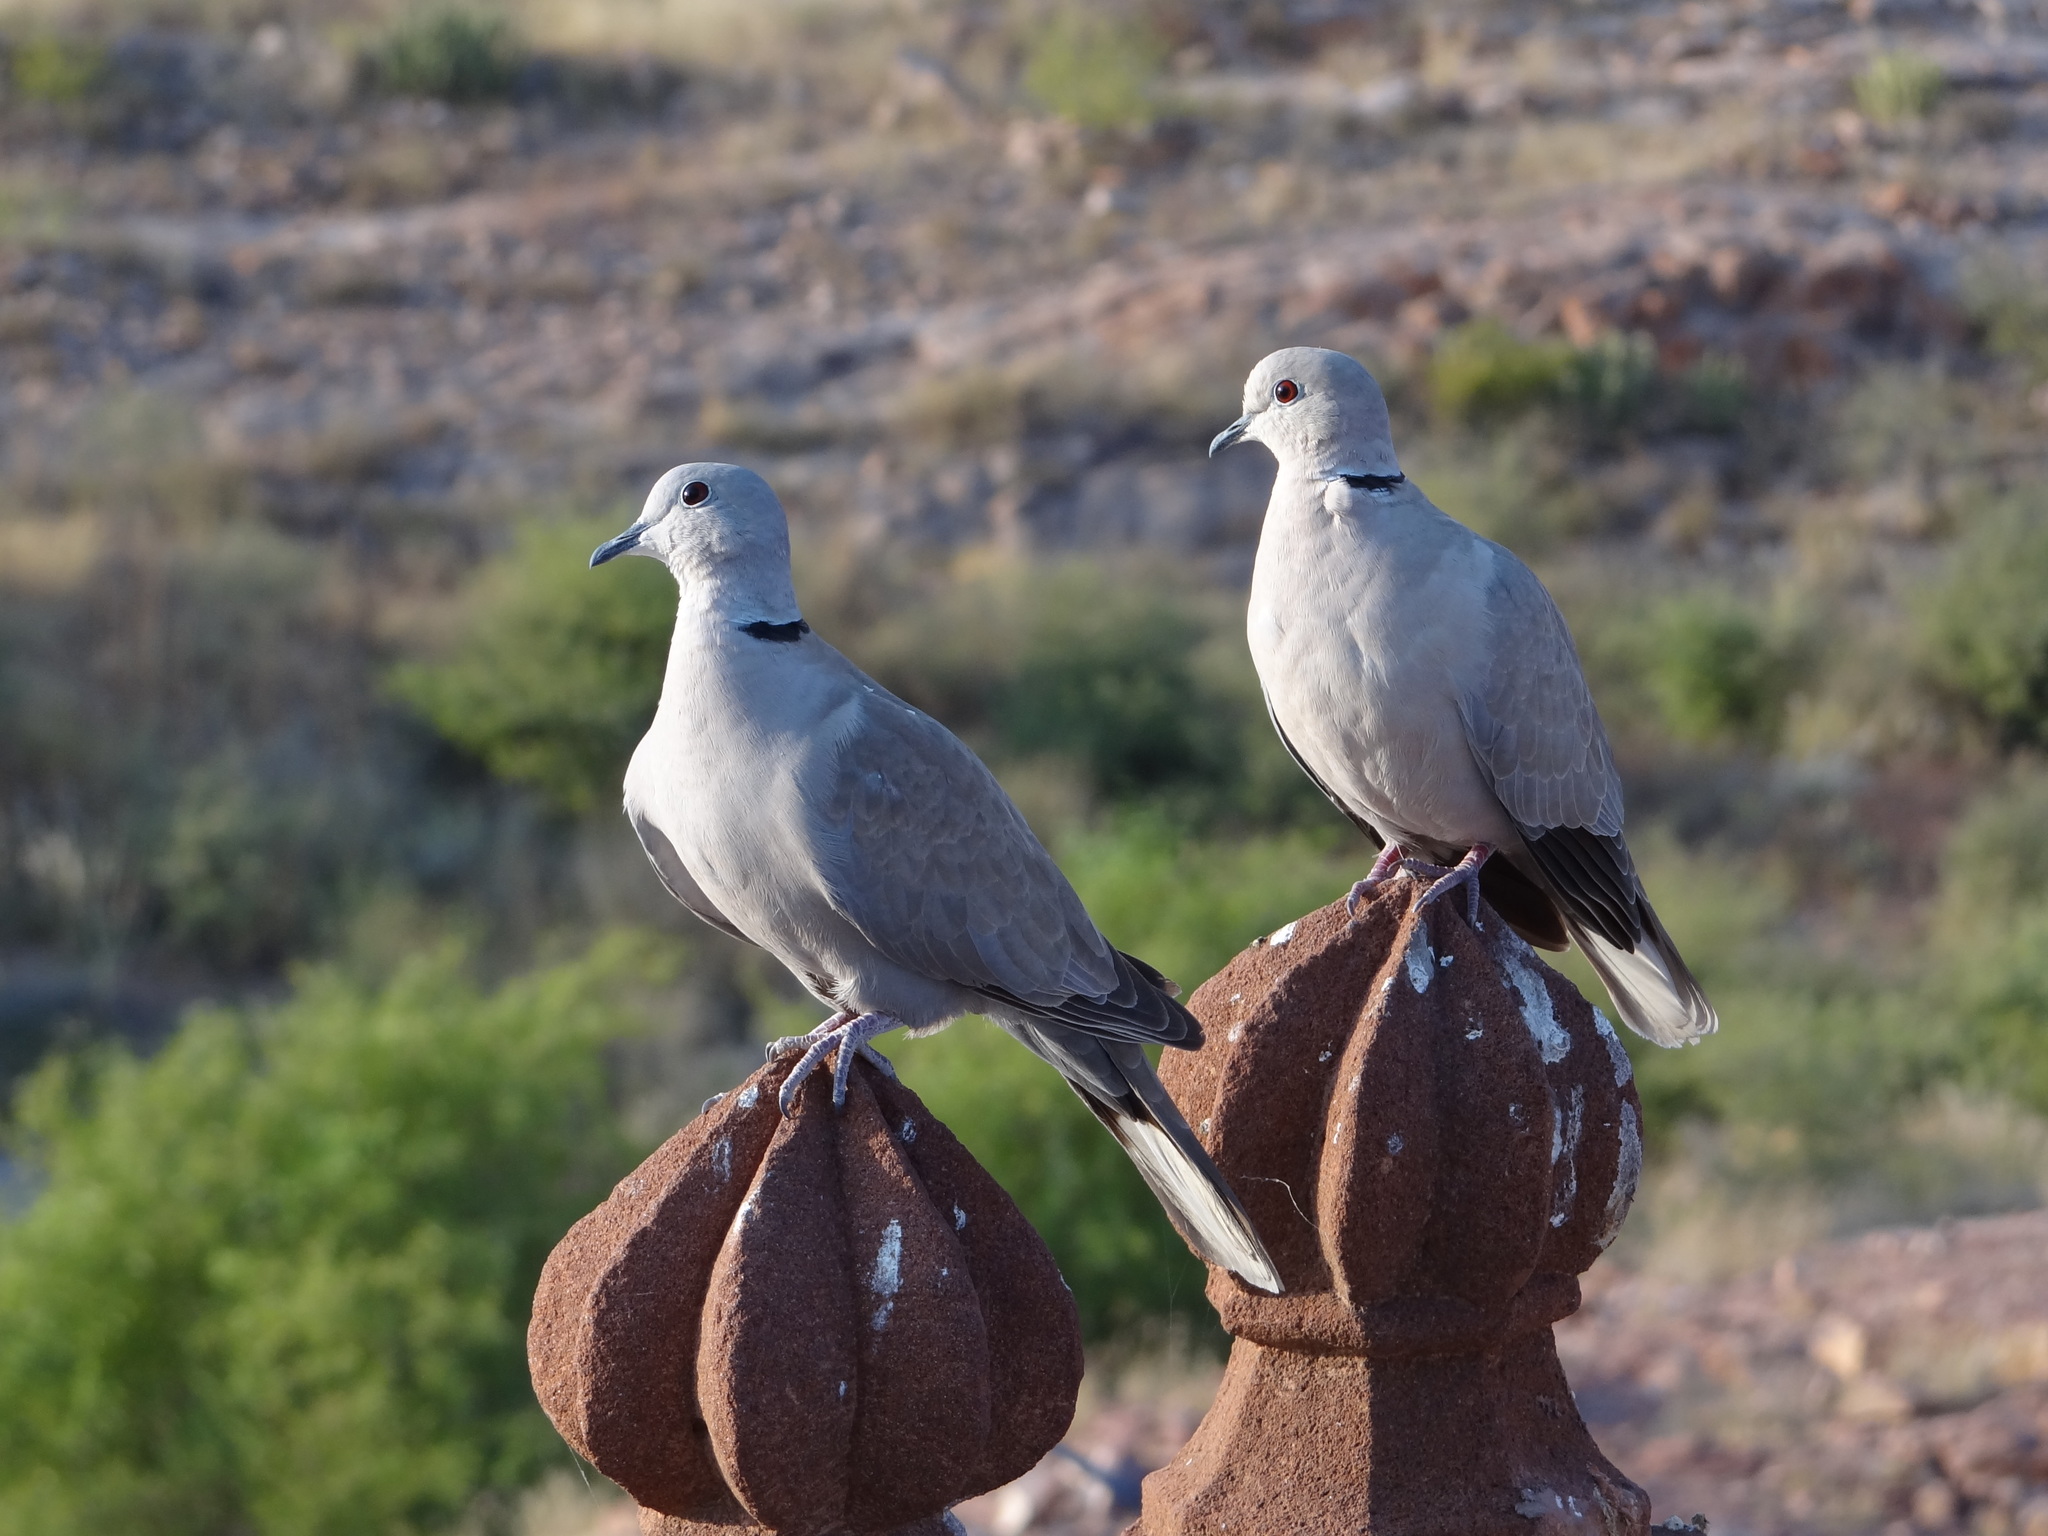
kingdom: Animalia
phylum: Chordata
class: Aves
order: Columbiformes
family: Columbidae
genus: Streptopelia
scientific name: Streptopelia decaocto
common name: Eurasian collared dove
